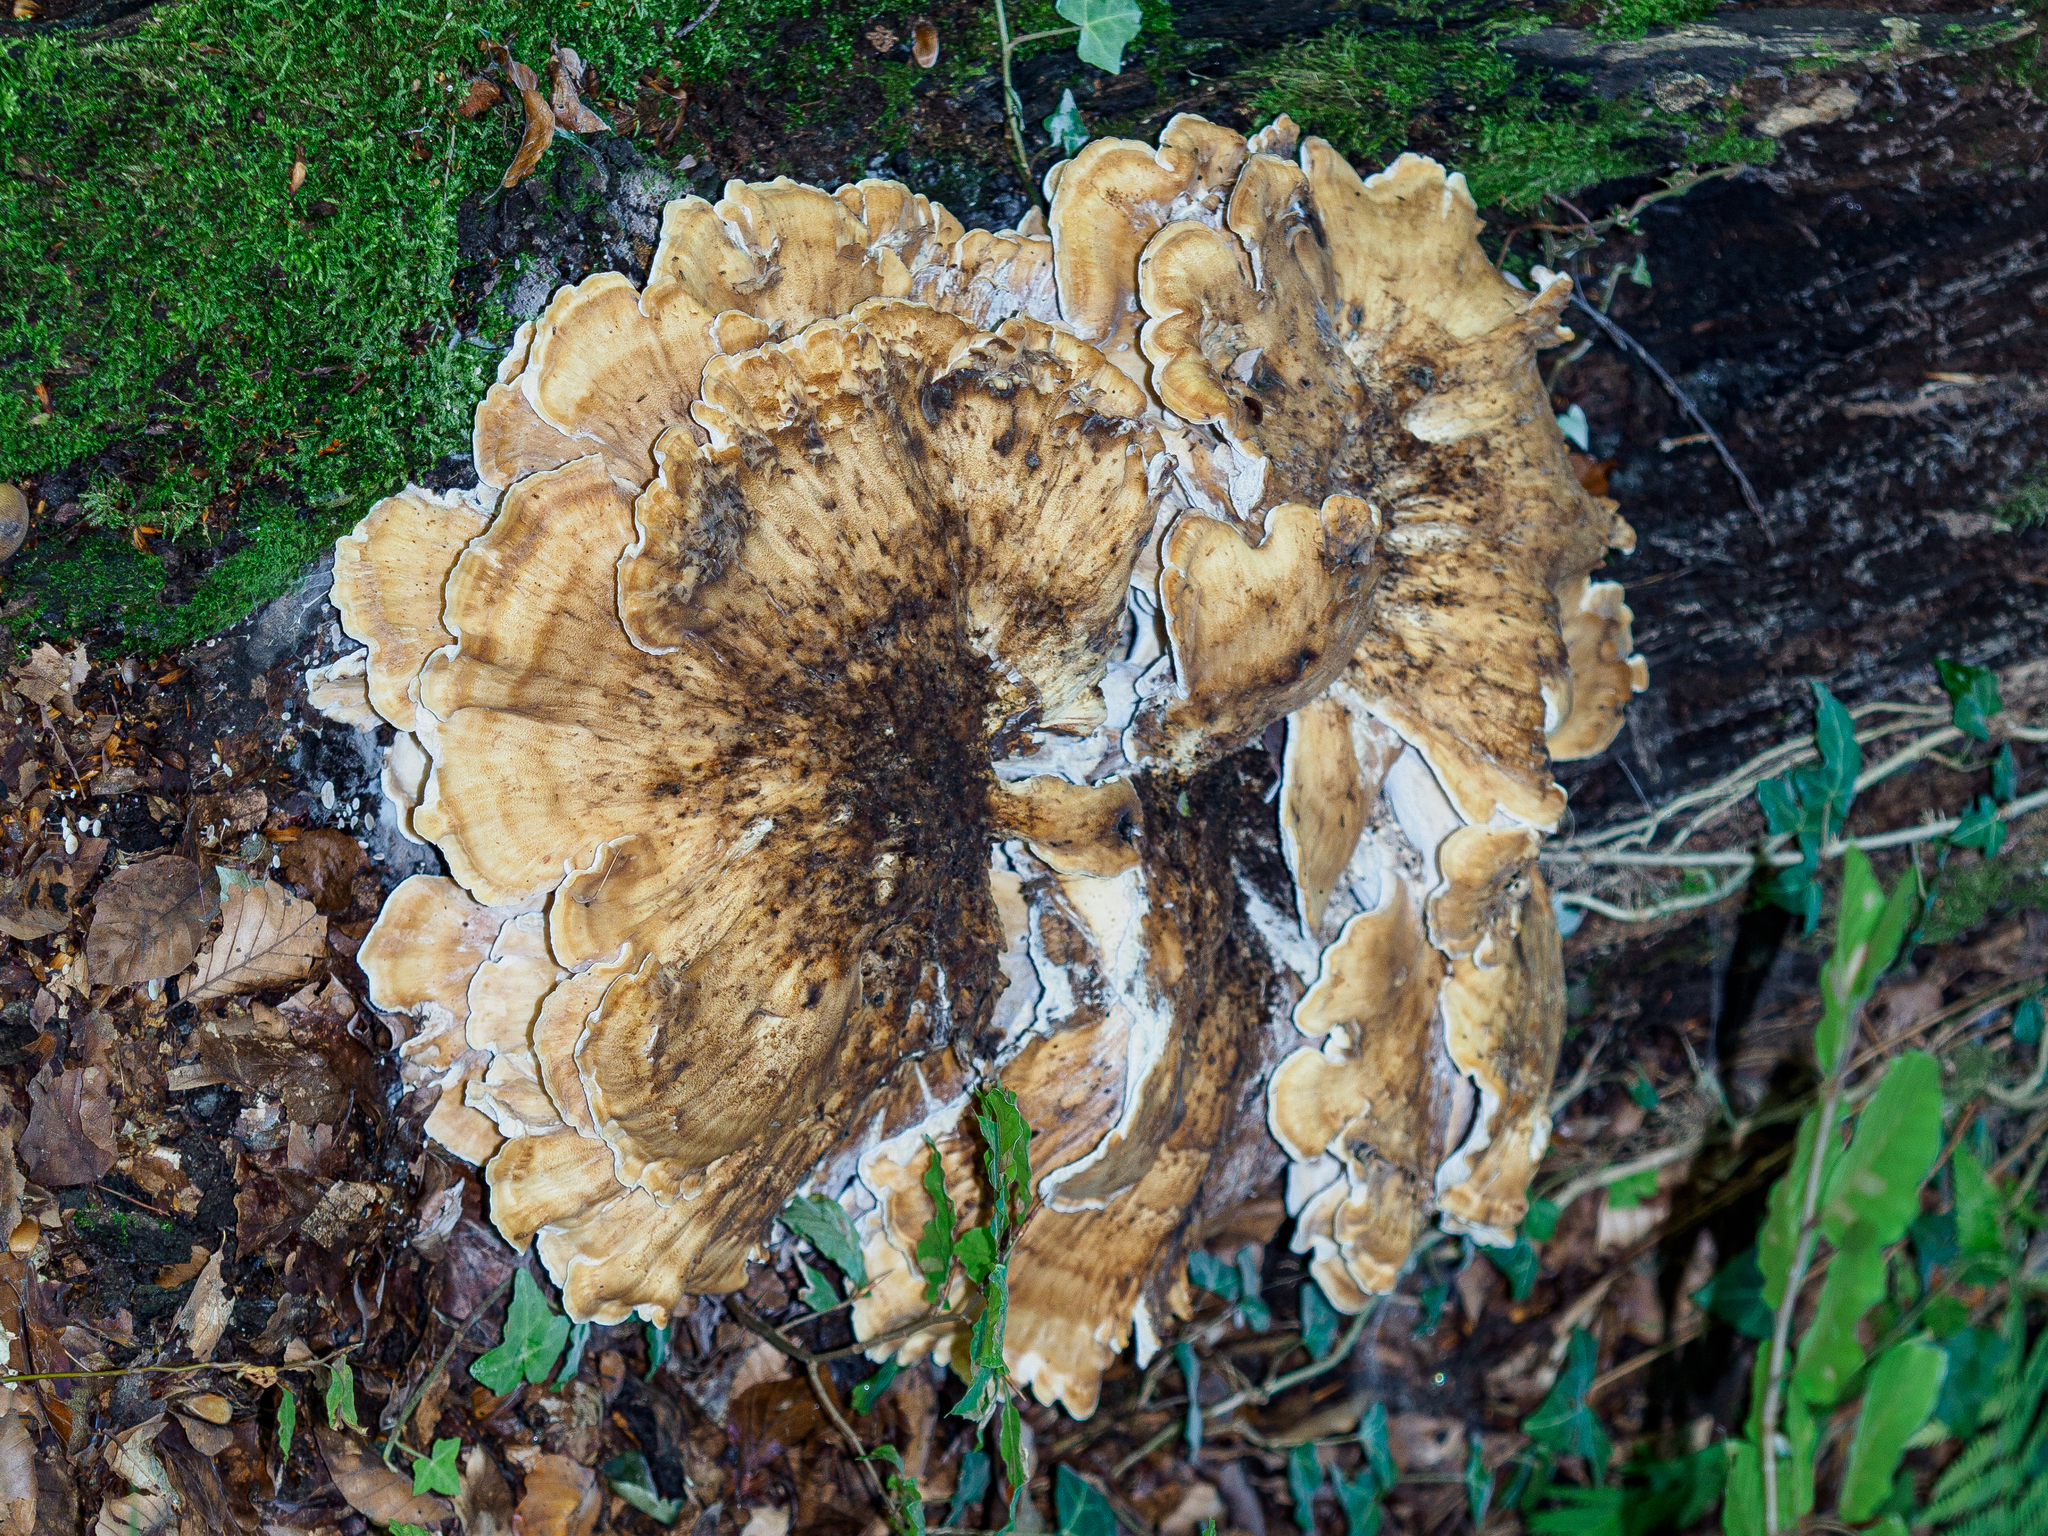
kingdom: Fungi
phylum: Basidiomycota
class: Agaricomycetes
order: Polyporales
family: Meripilaceae
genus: Meripilus
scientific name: Meripilus giganteus
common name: Giant polypore
